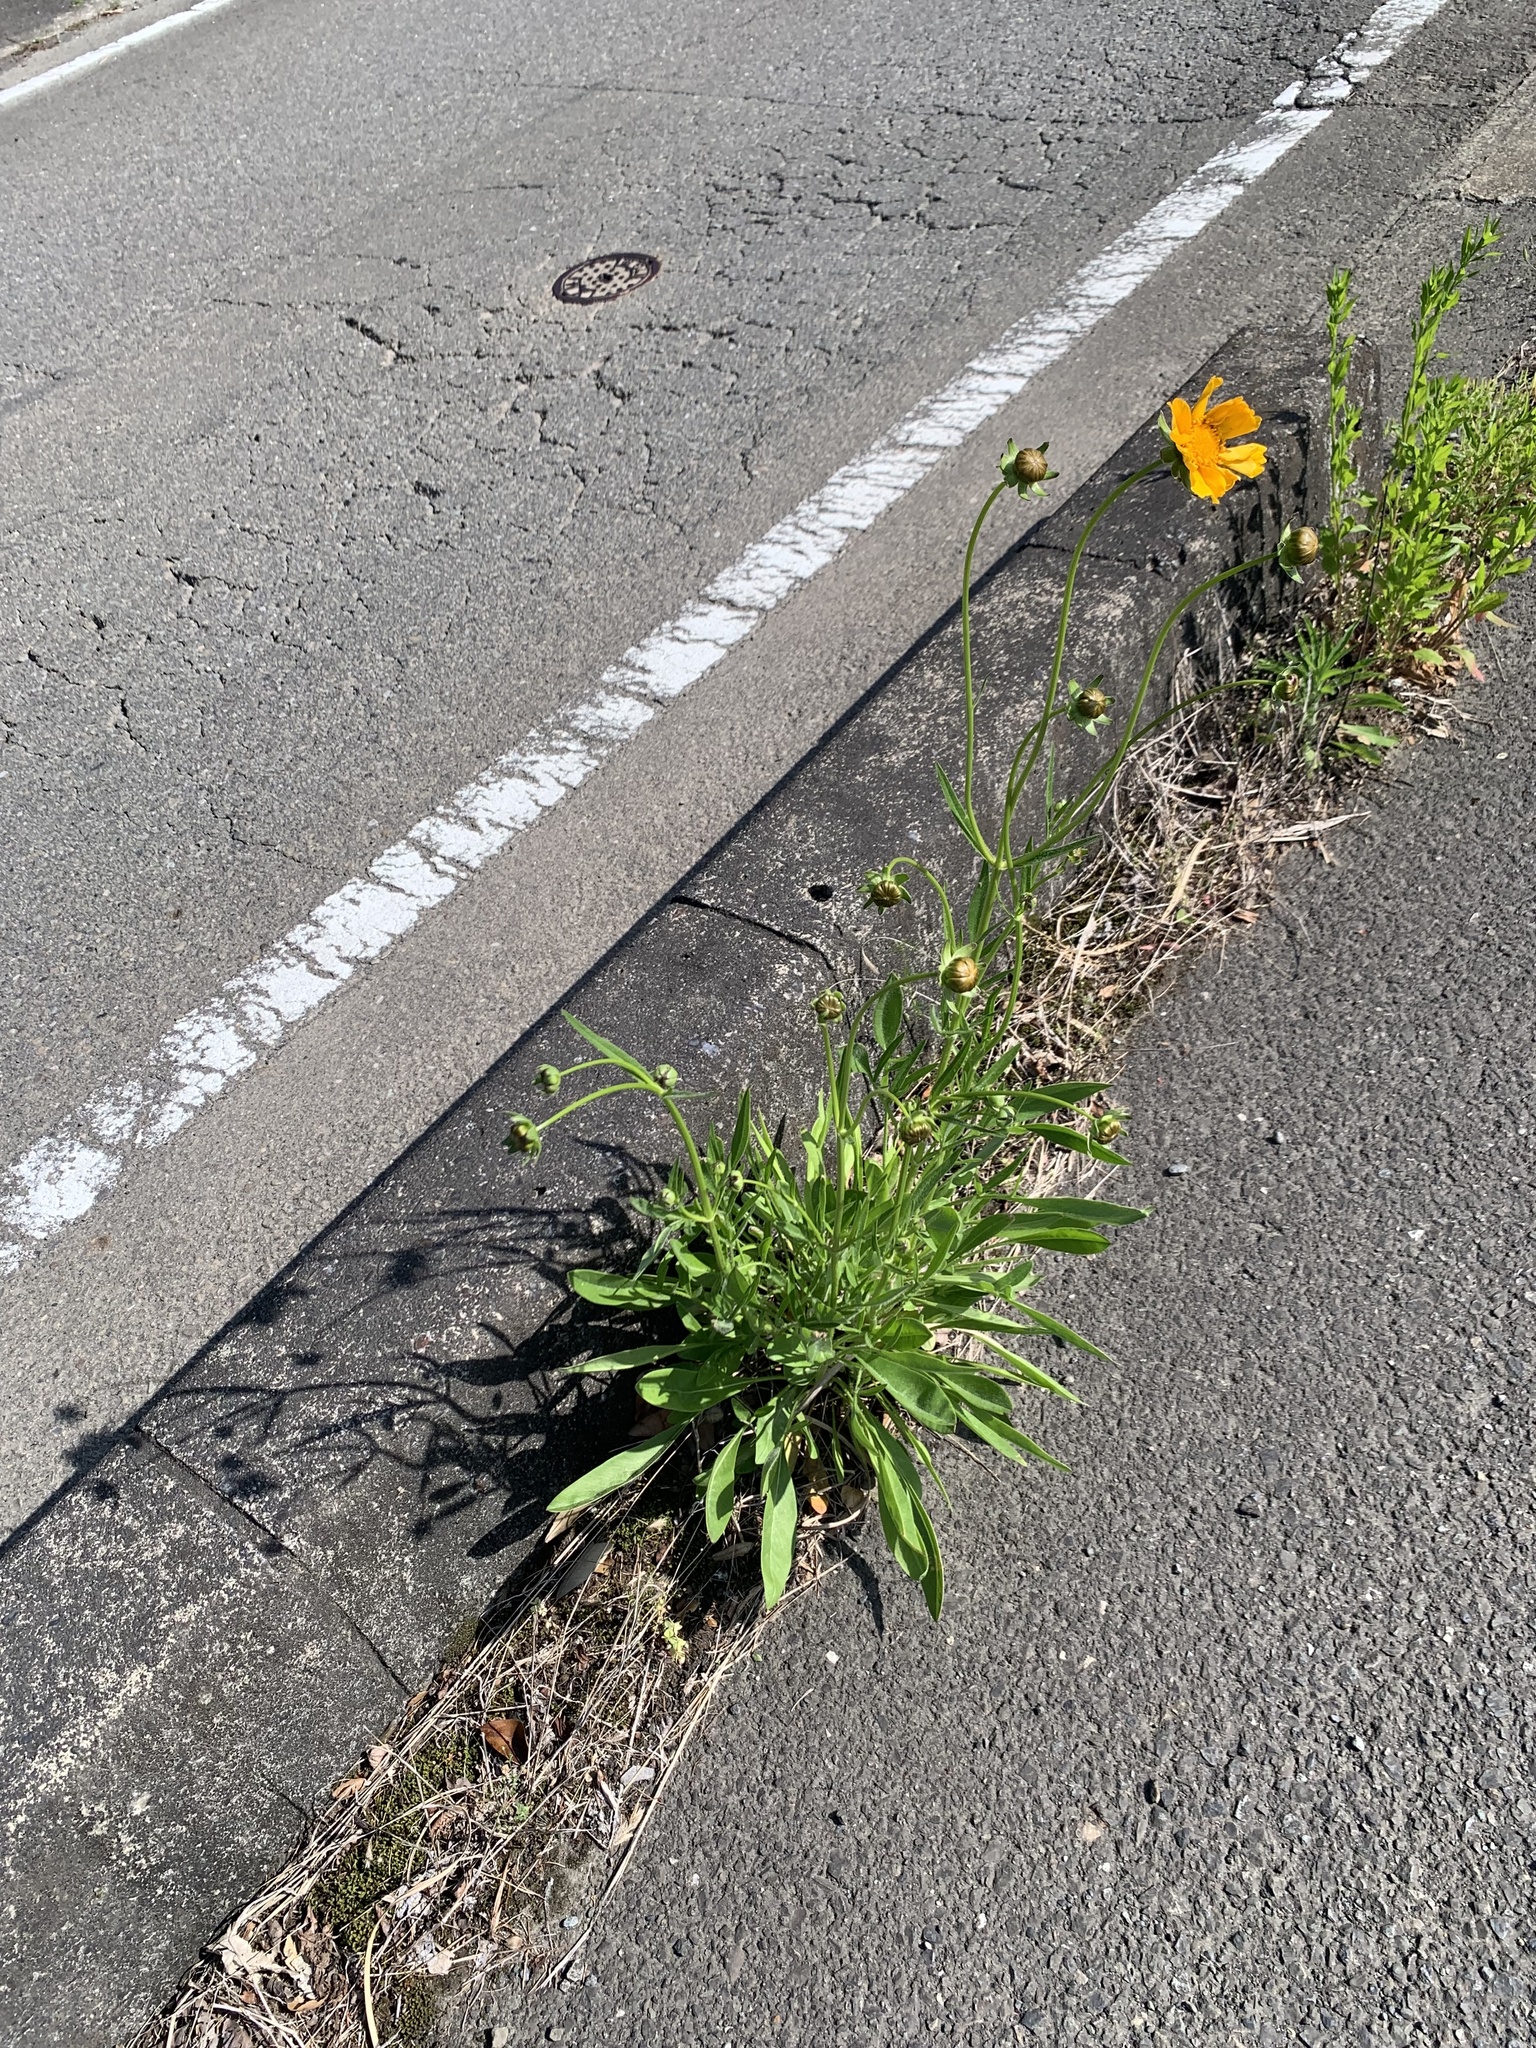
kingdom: Plantae
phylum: Tracheophyta
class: Magnoliopsida
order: Asterales
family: Asteraceae
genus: Coreopsis
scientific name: Coreopsis lanceolata
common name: Garden coreopsis
